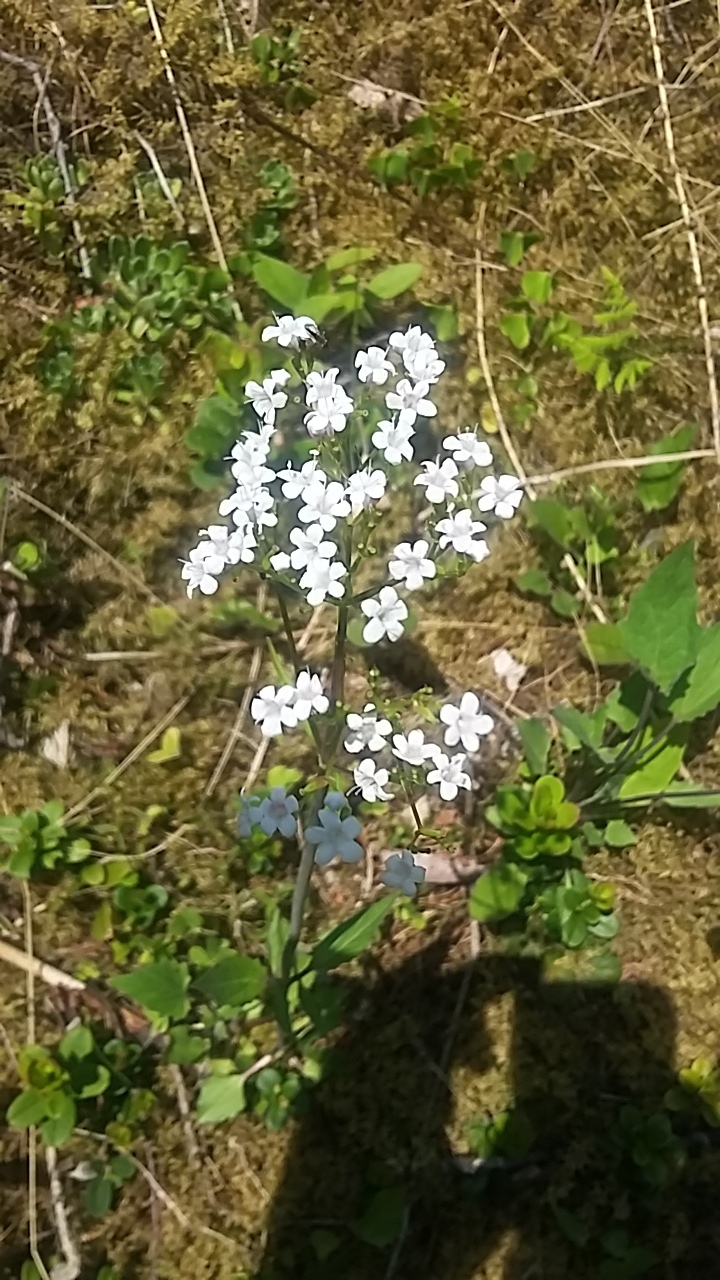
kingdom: Plantae
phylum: Tracheophyta
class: Magnoliopsida
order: Dipsacales
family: Caprifoliaceae
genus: Valeriana
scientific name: Valeriana tripteris
